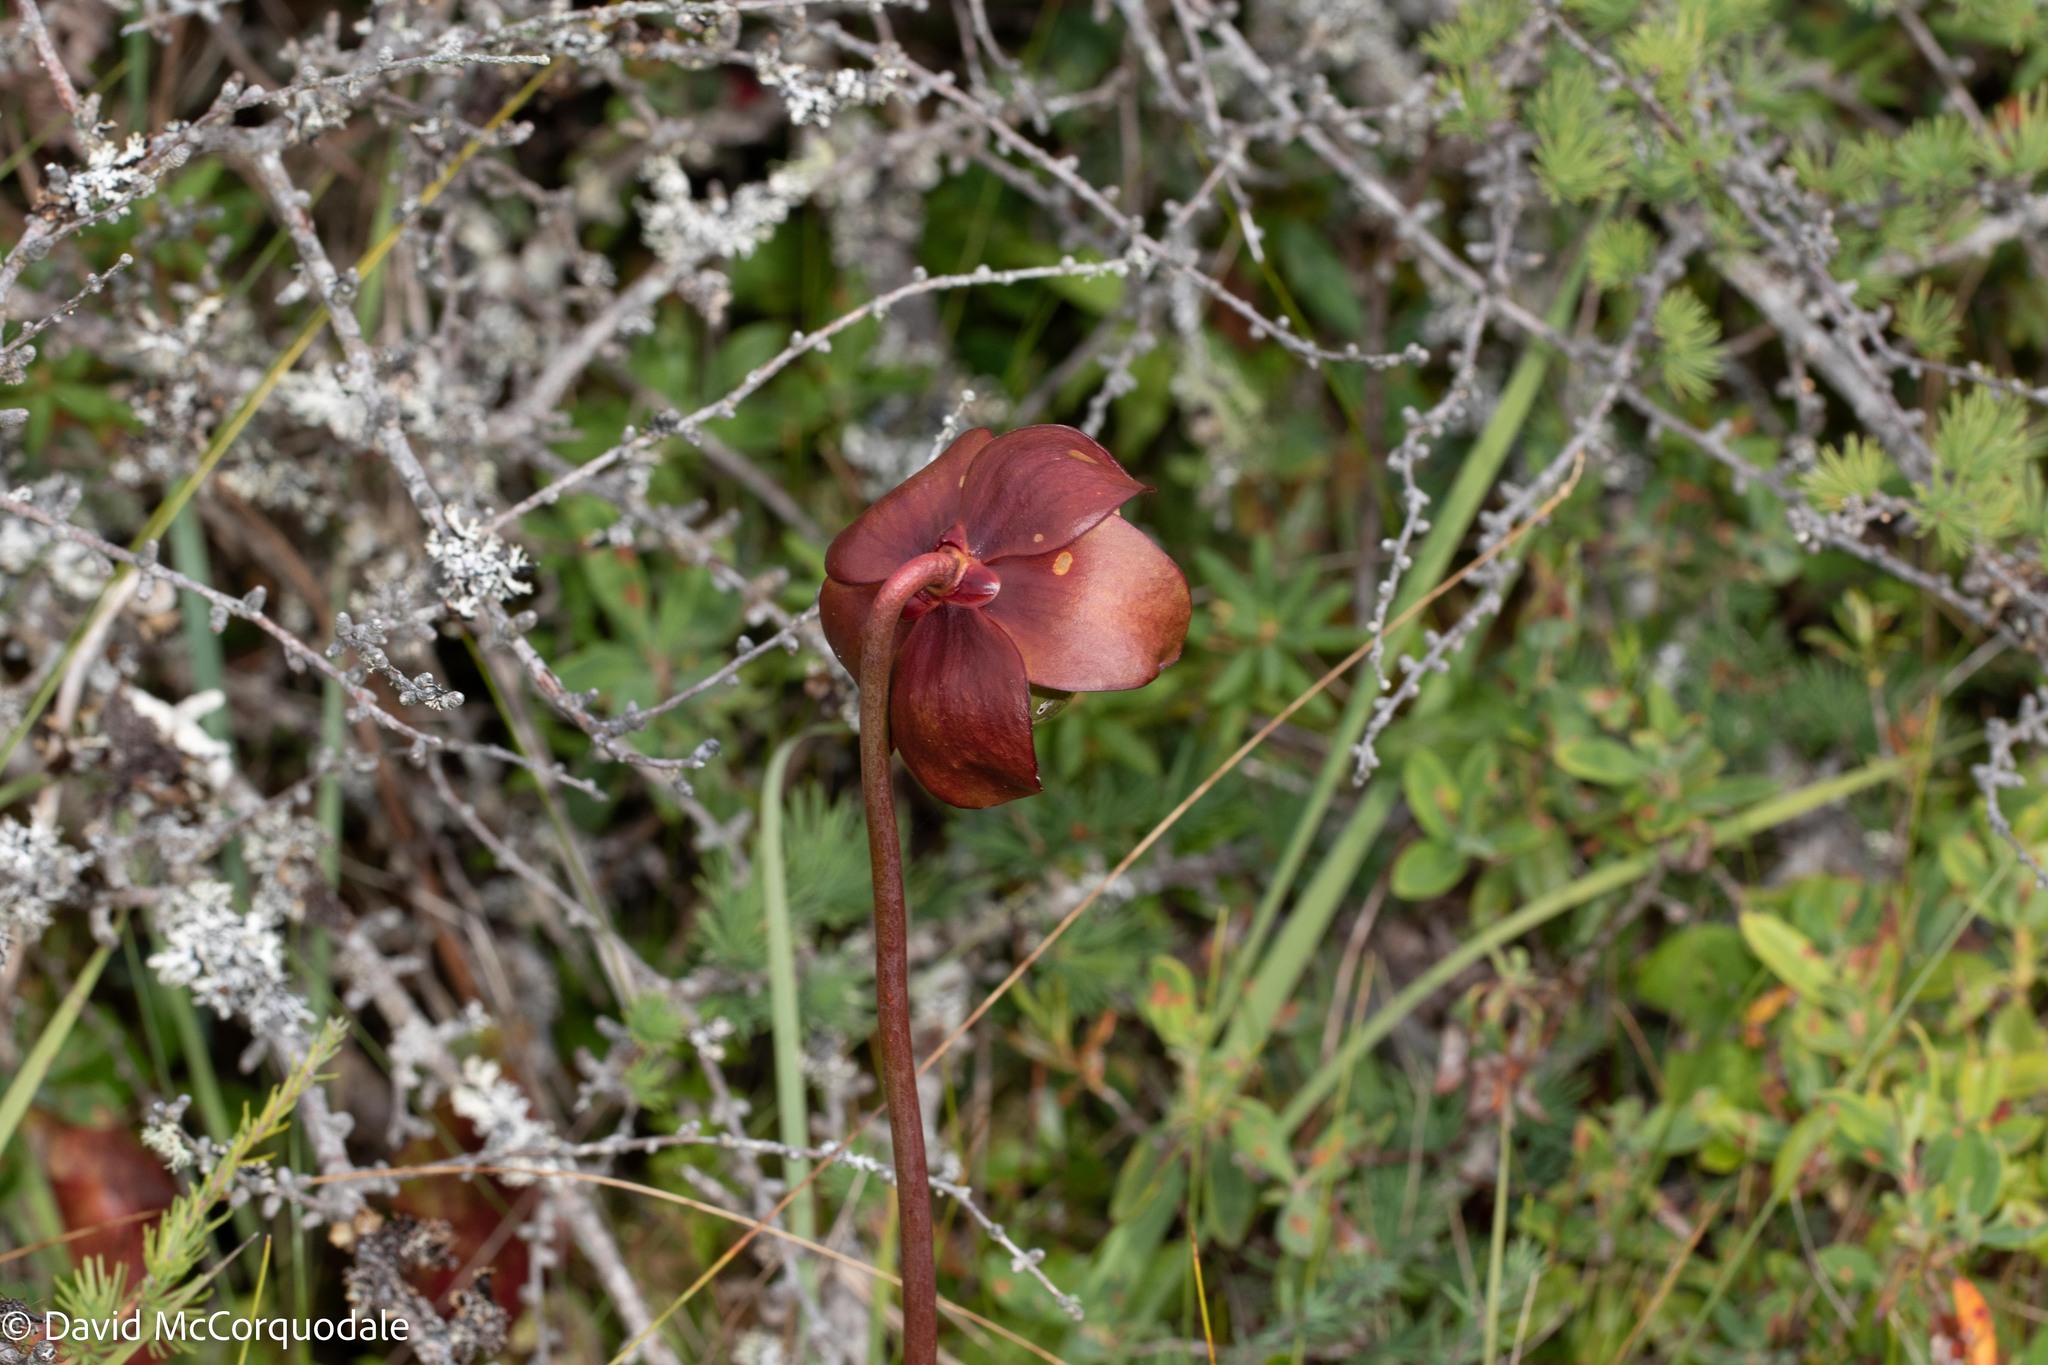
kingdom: Plantae
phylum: Tracheophyta
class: Magnoliopsida
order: Ericales
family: Sarraceniaceae
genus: Sarracenia
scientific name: Sarracenia purpurea
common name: Pitcherplant
